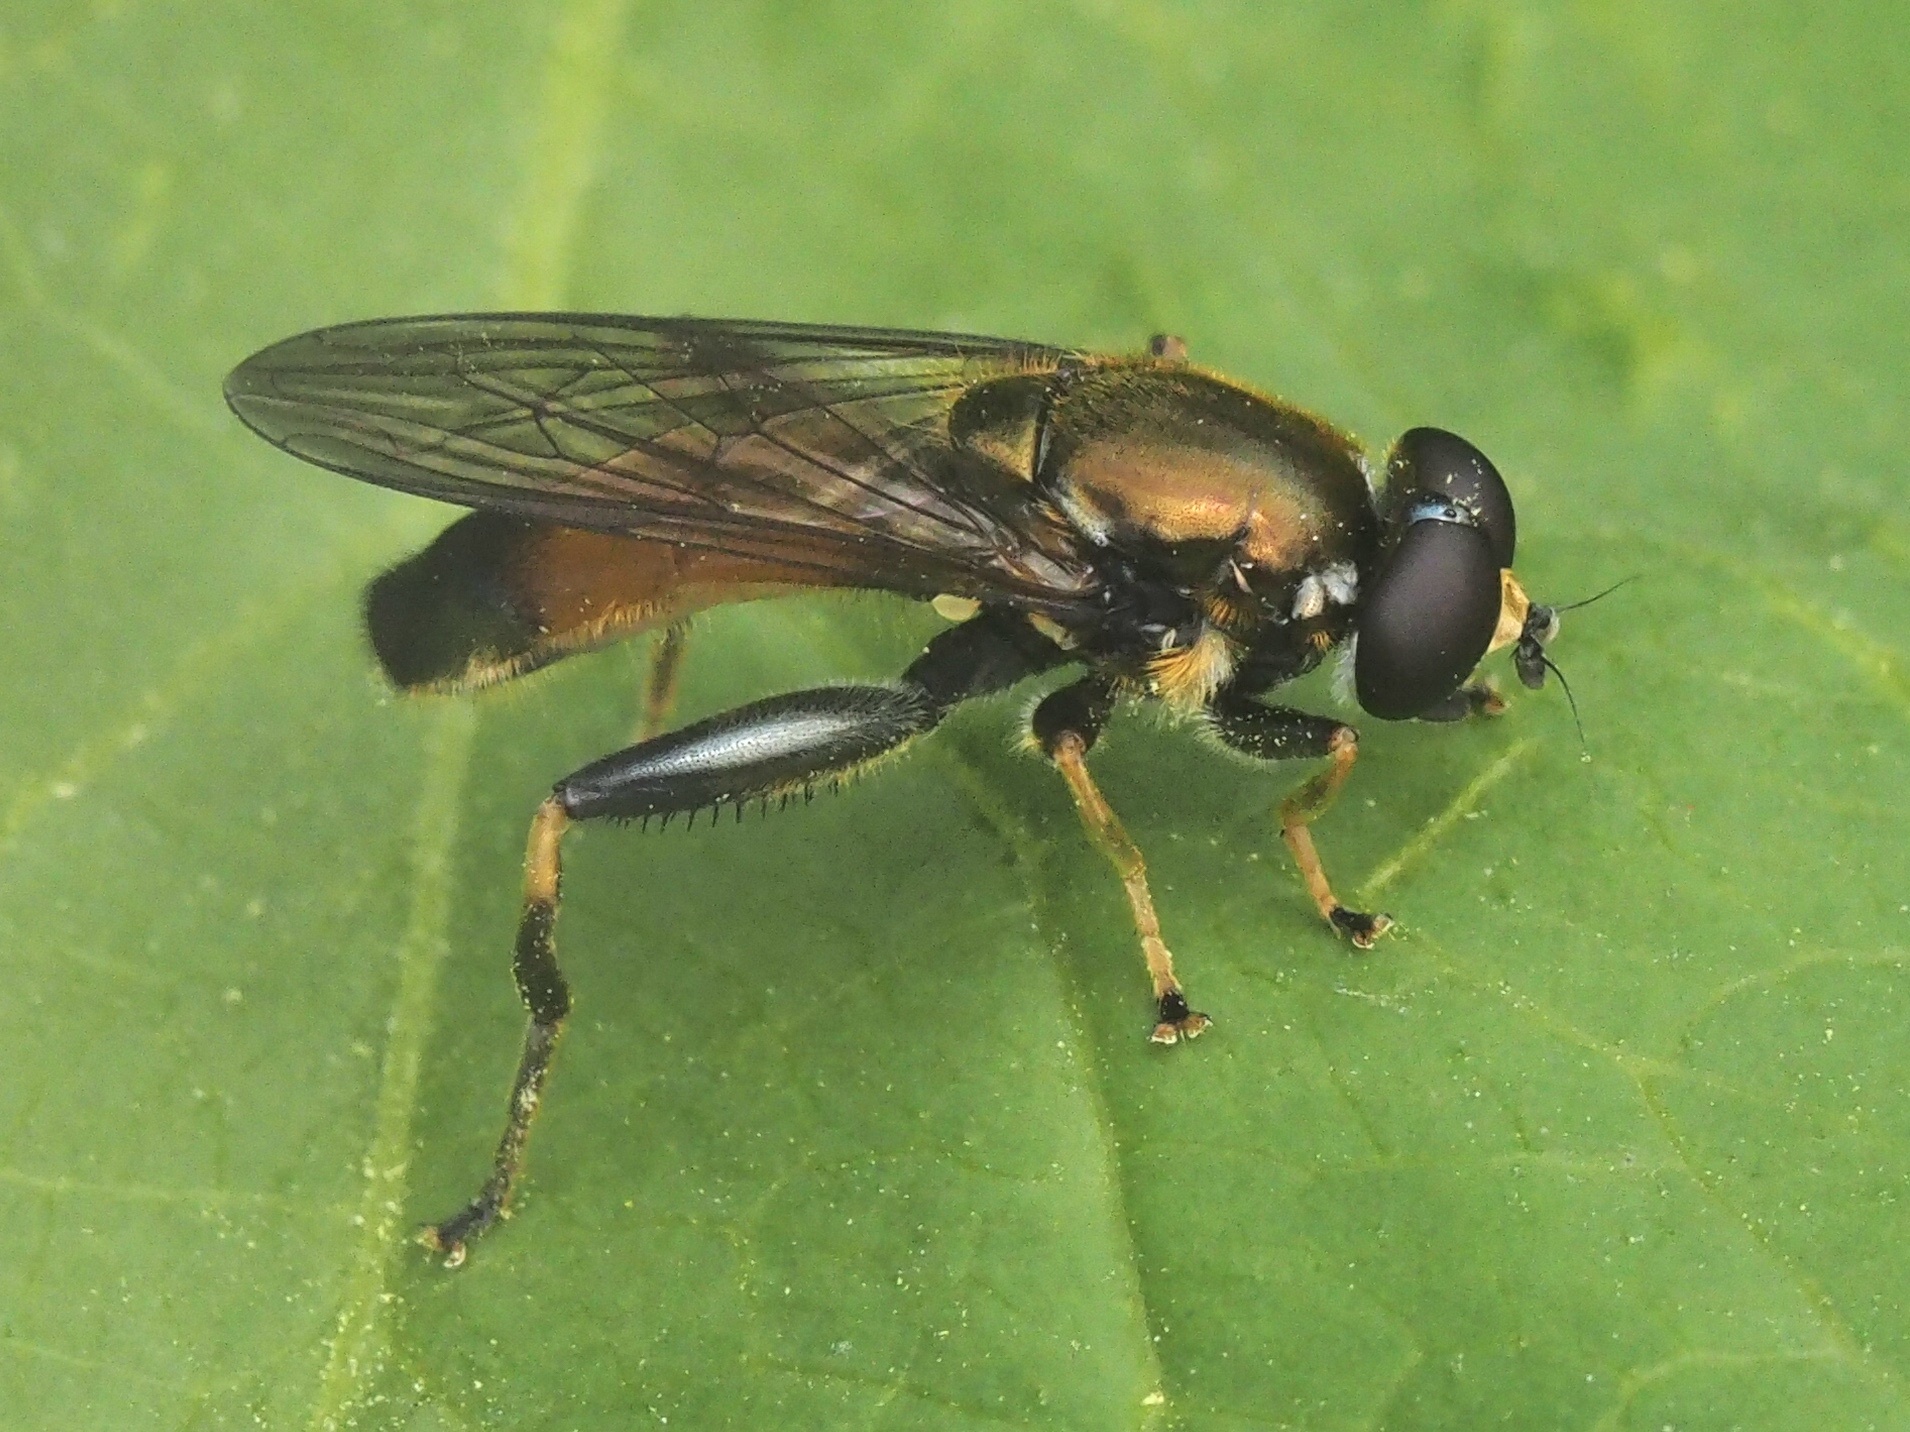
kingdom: Animalia
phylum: Arthropoda
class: Insecta
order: Diptera
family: Syrphidae
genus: Xylota
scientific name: Xylota segnis
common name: Brown-toed forest fly
